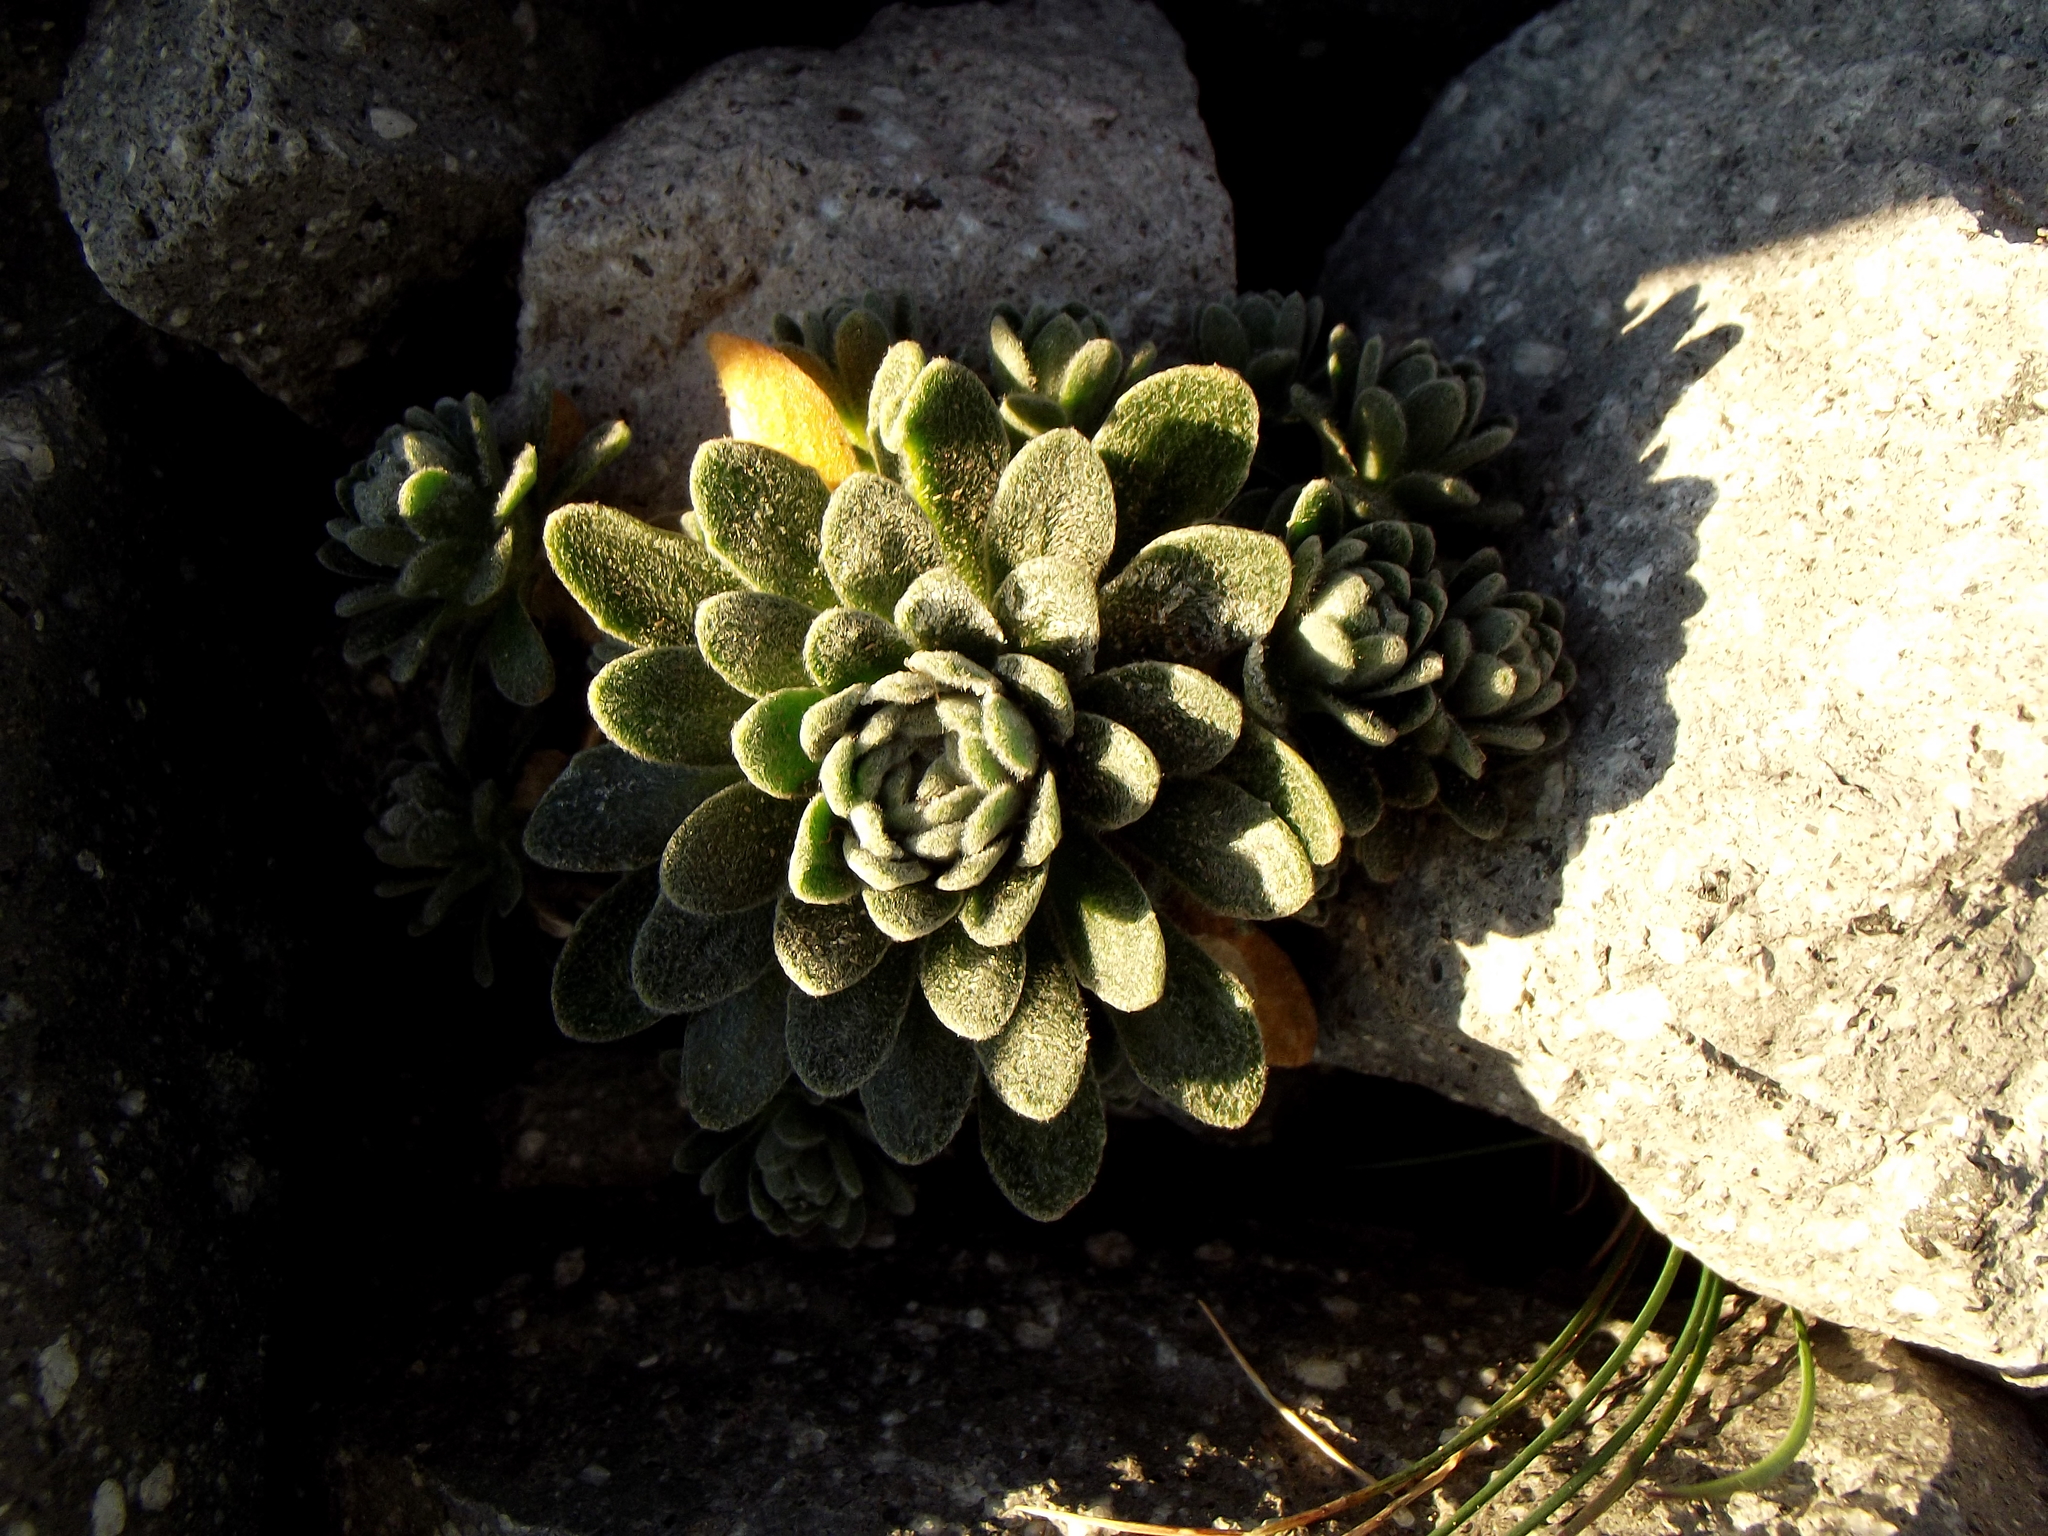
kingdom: Plantae
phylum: Tracheophyta
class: Magnoliopsida
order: Brassicales
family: Brassicaceae
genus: Draba
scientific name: Draba nivicola
